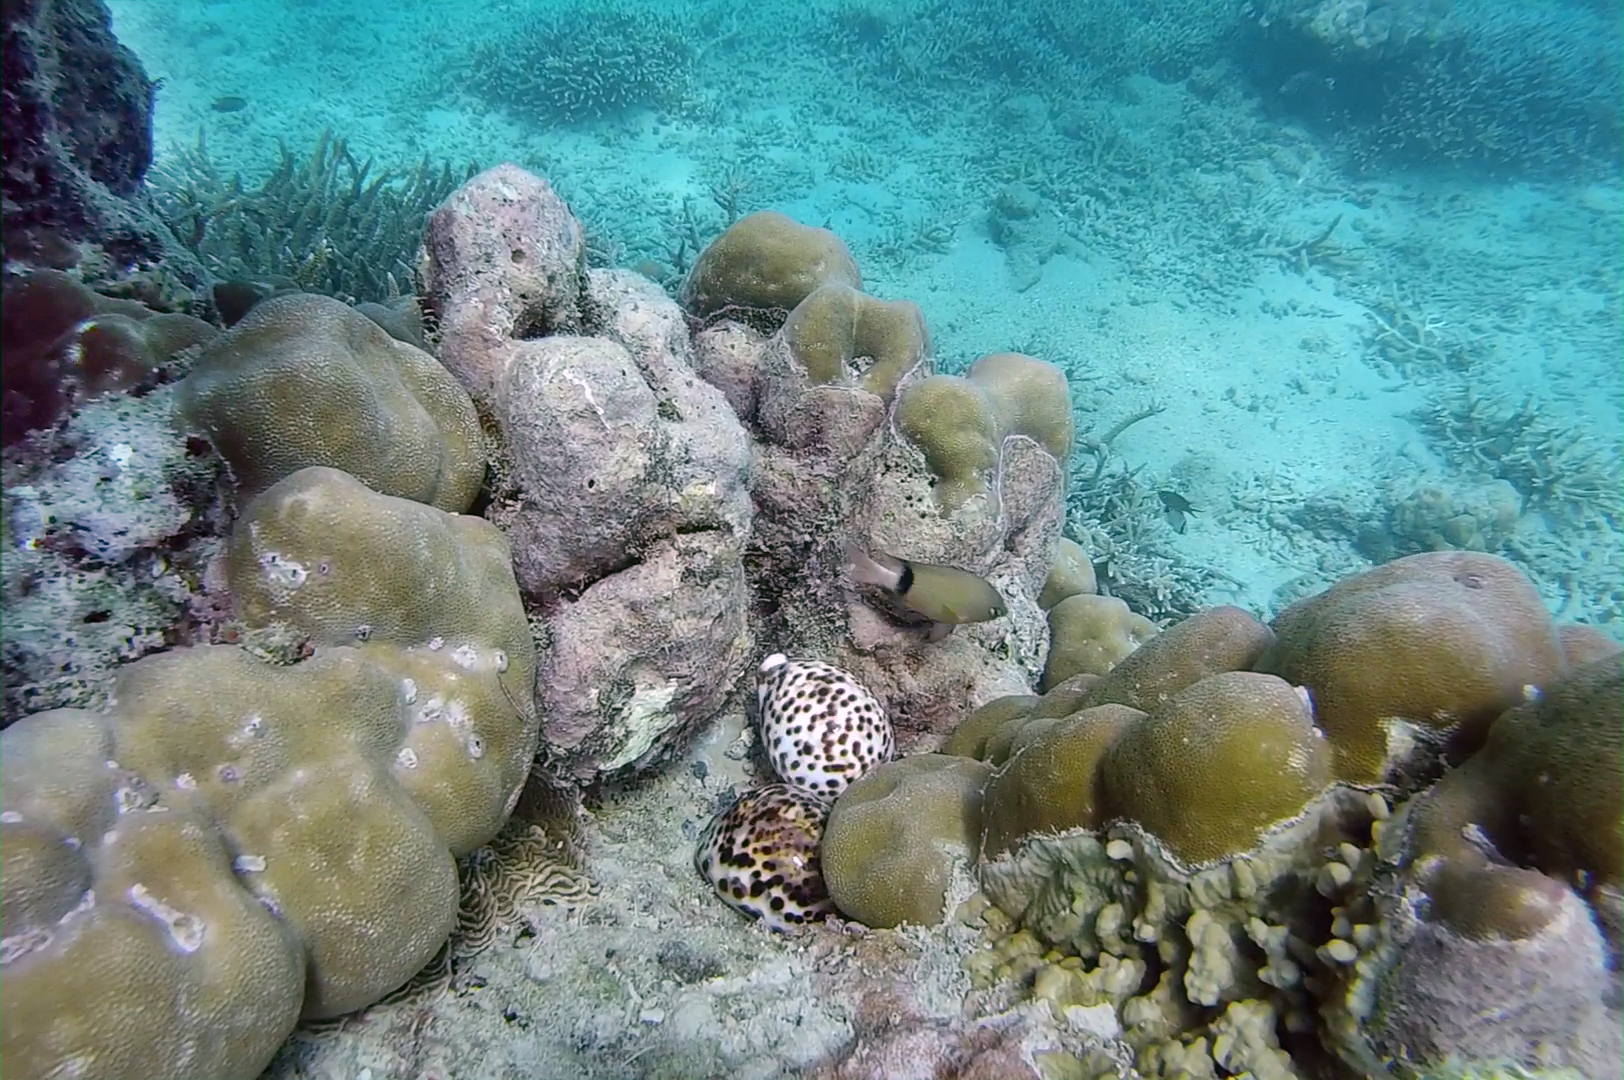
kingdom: Animalia
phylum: Chordata
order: Perciformes
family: Pomacentridae
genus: Plectroglyphidodon
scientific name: Plectroglyphidodon dickii
